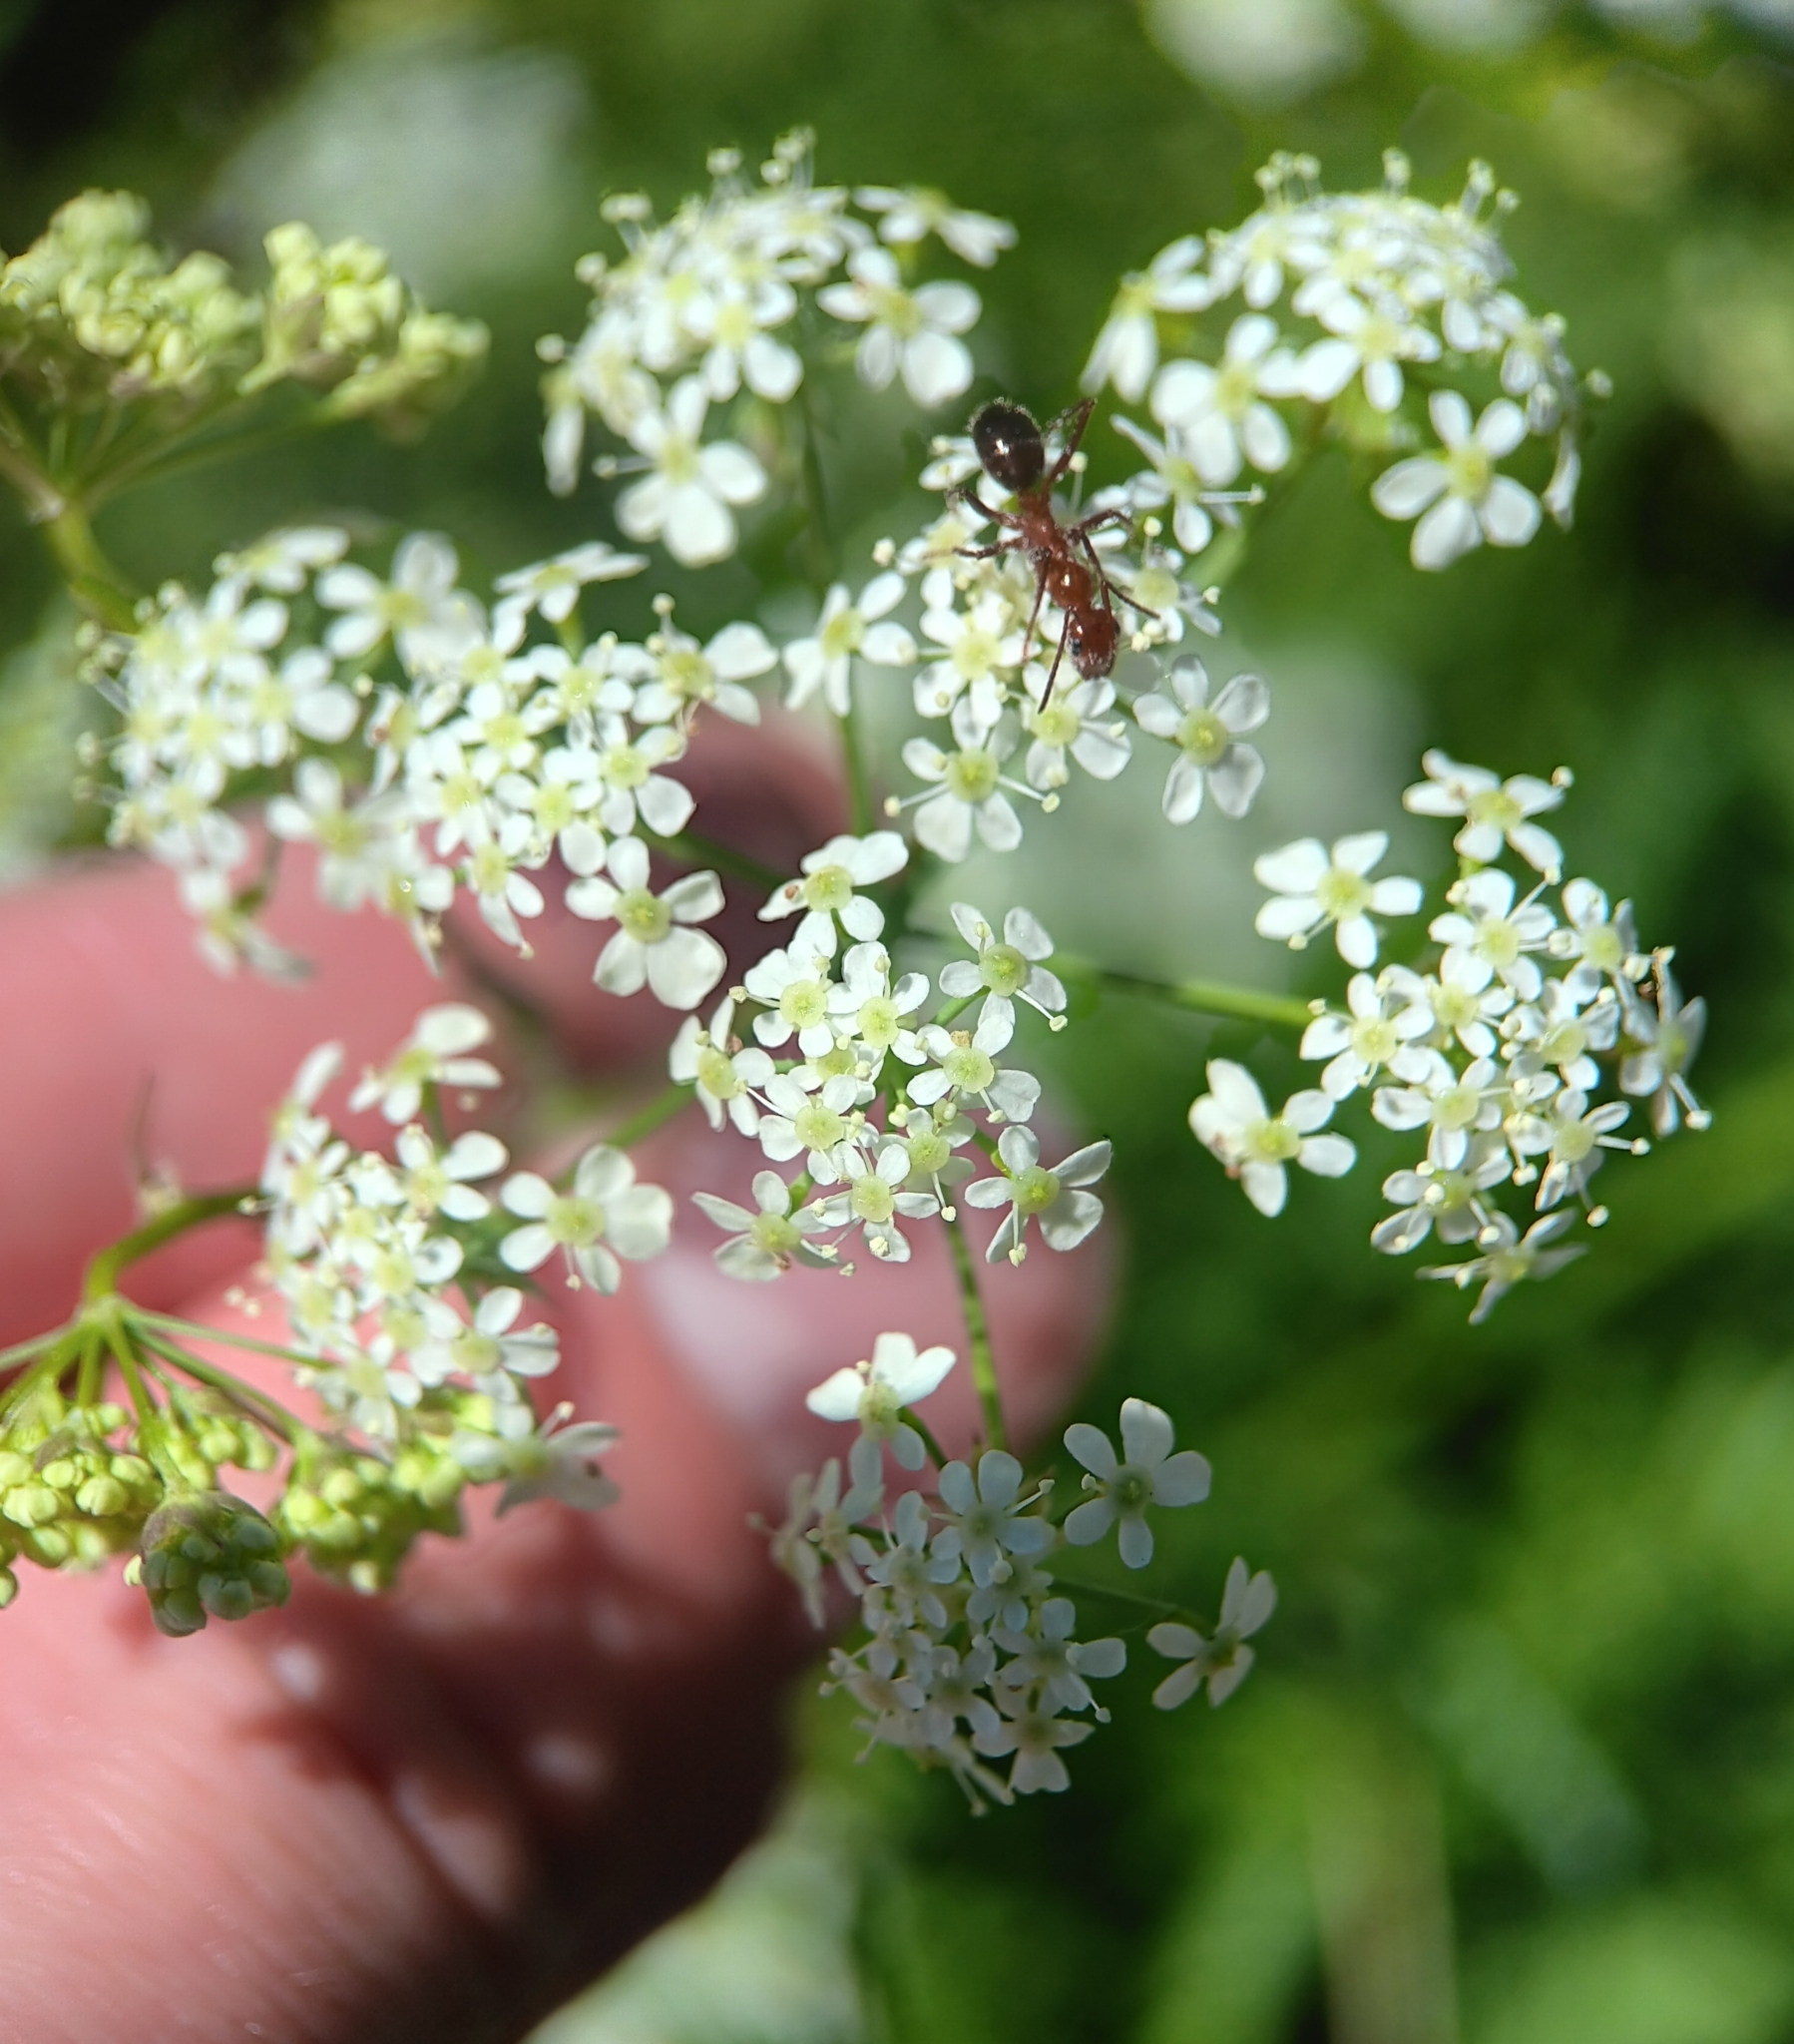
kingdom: Plantae
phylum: Tracheophyta
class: Magnoliopsida
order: Apiales
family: Apiaceae
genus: Anthriscus
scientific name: Anthriscus sylvestris
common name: Cow parsley
